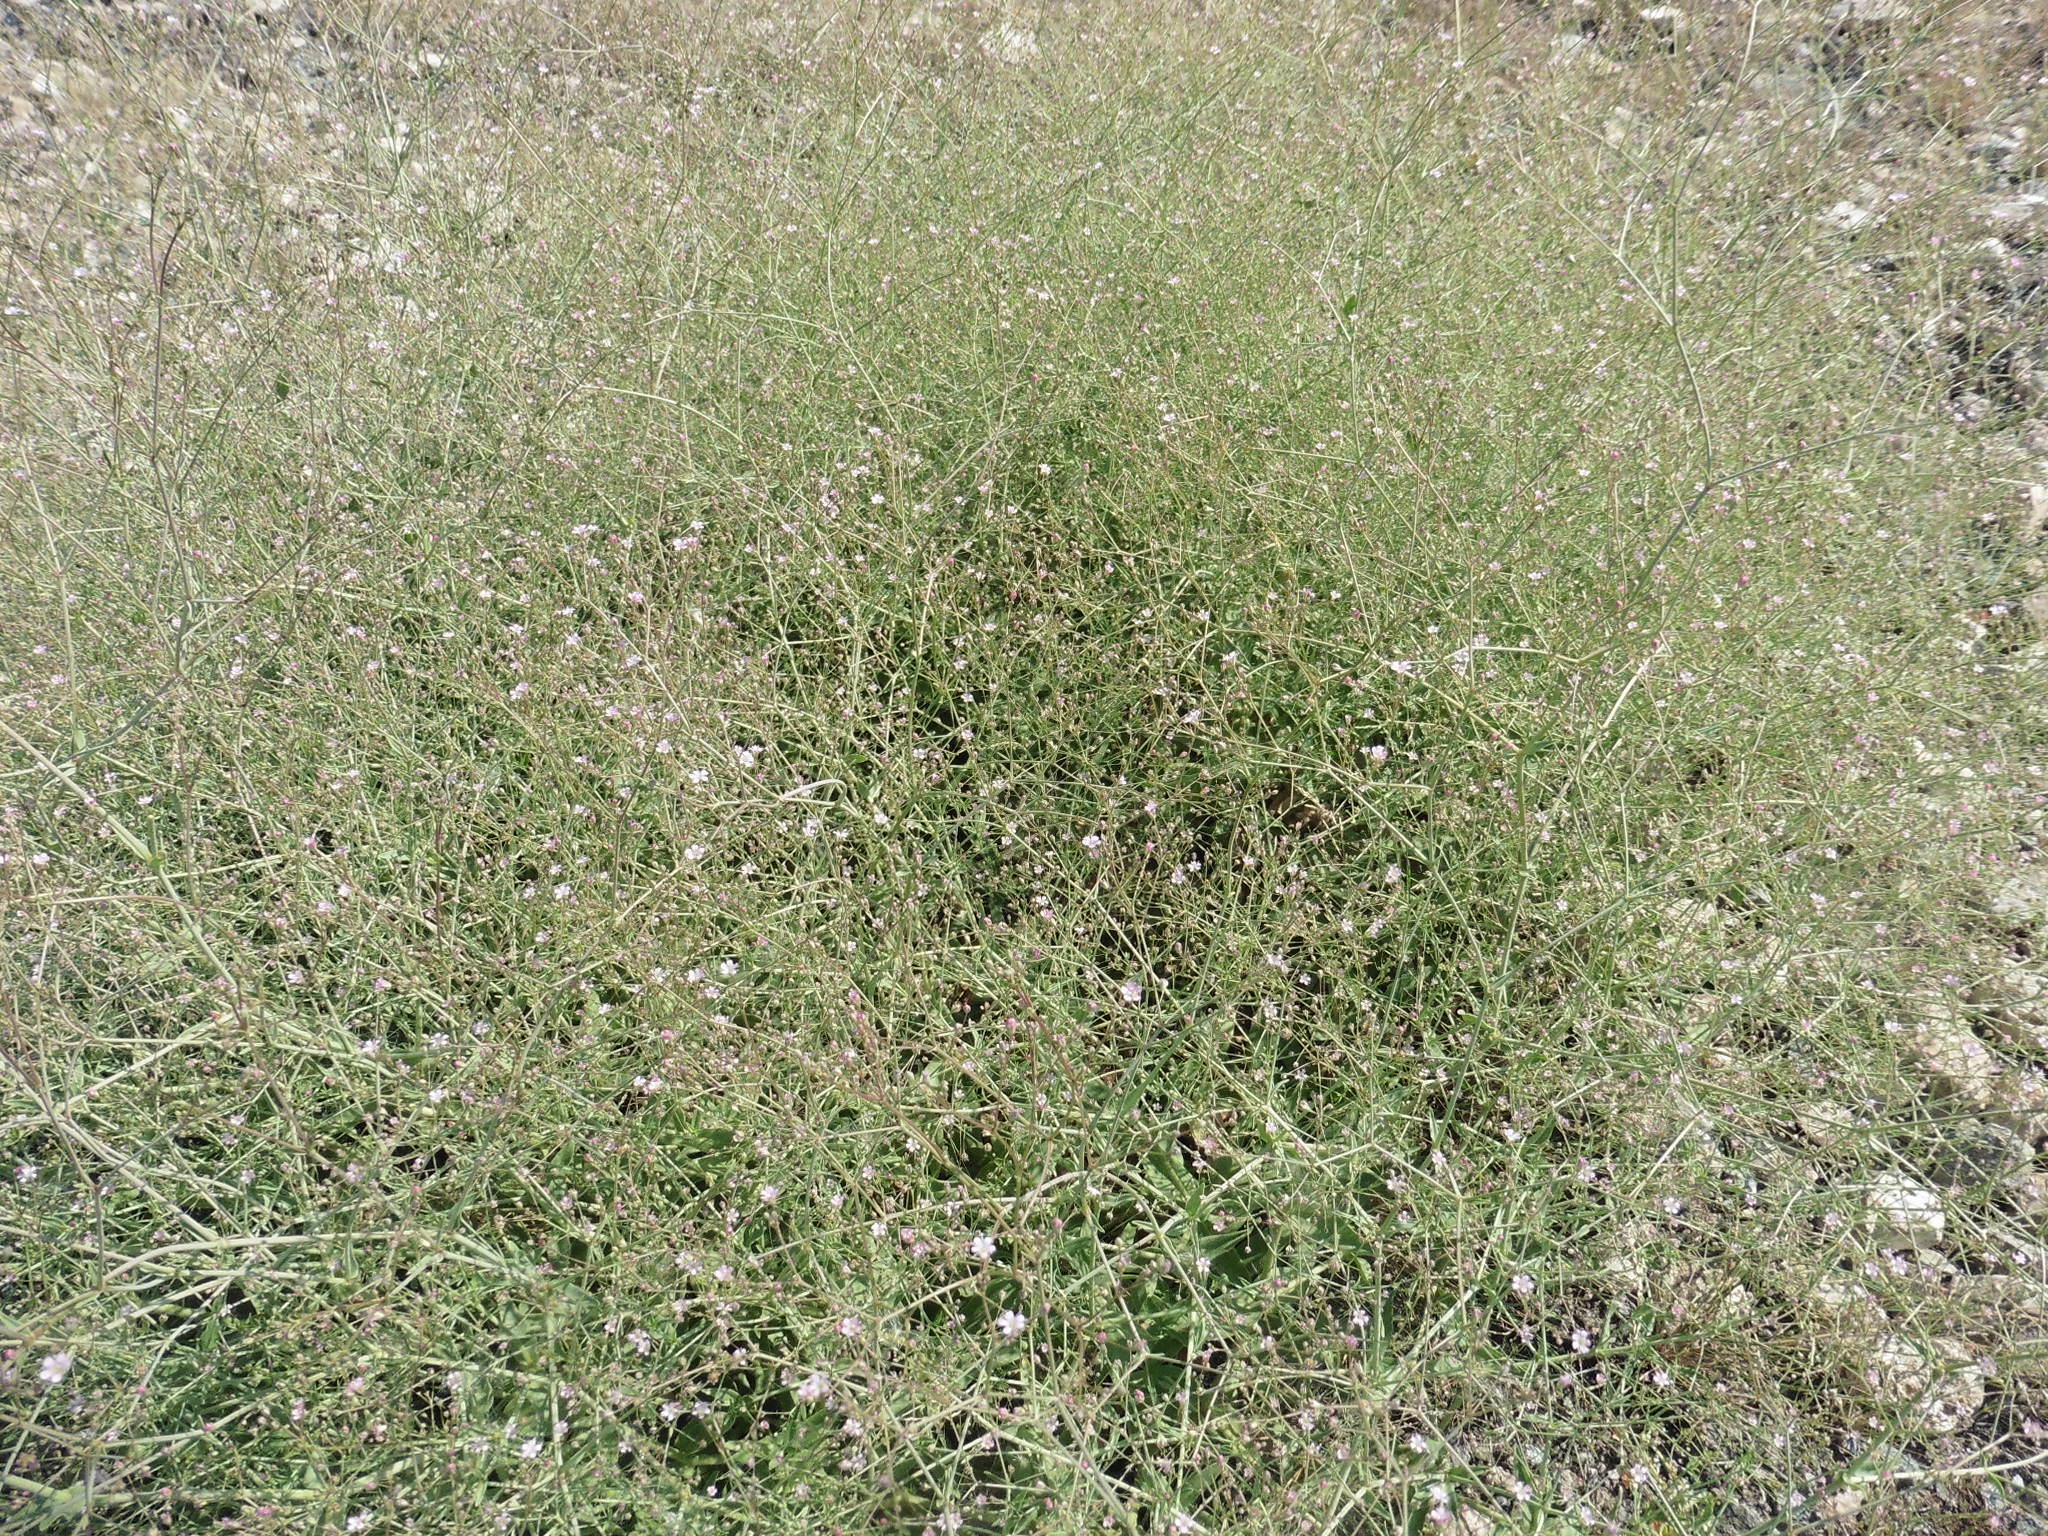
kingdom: Plantae
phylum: Tracheophyta
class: Magnoliopsida
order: Caryophyllales
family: Caryophyllaceae
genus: Gypsophila
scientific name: Gypsophila perfoliata
